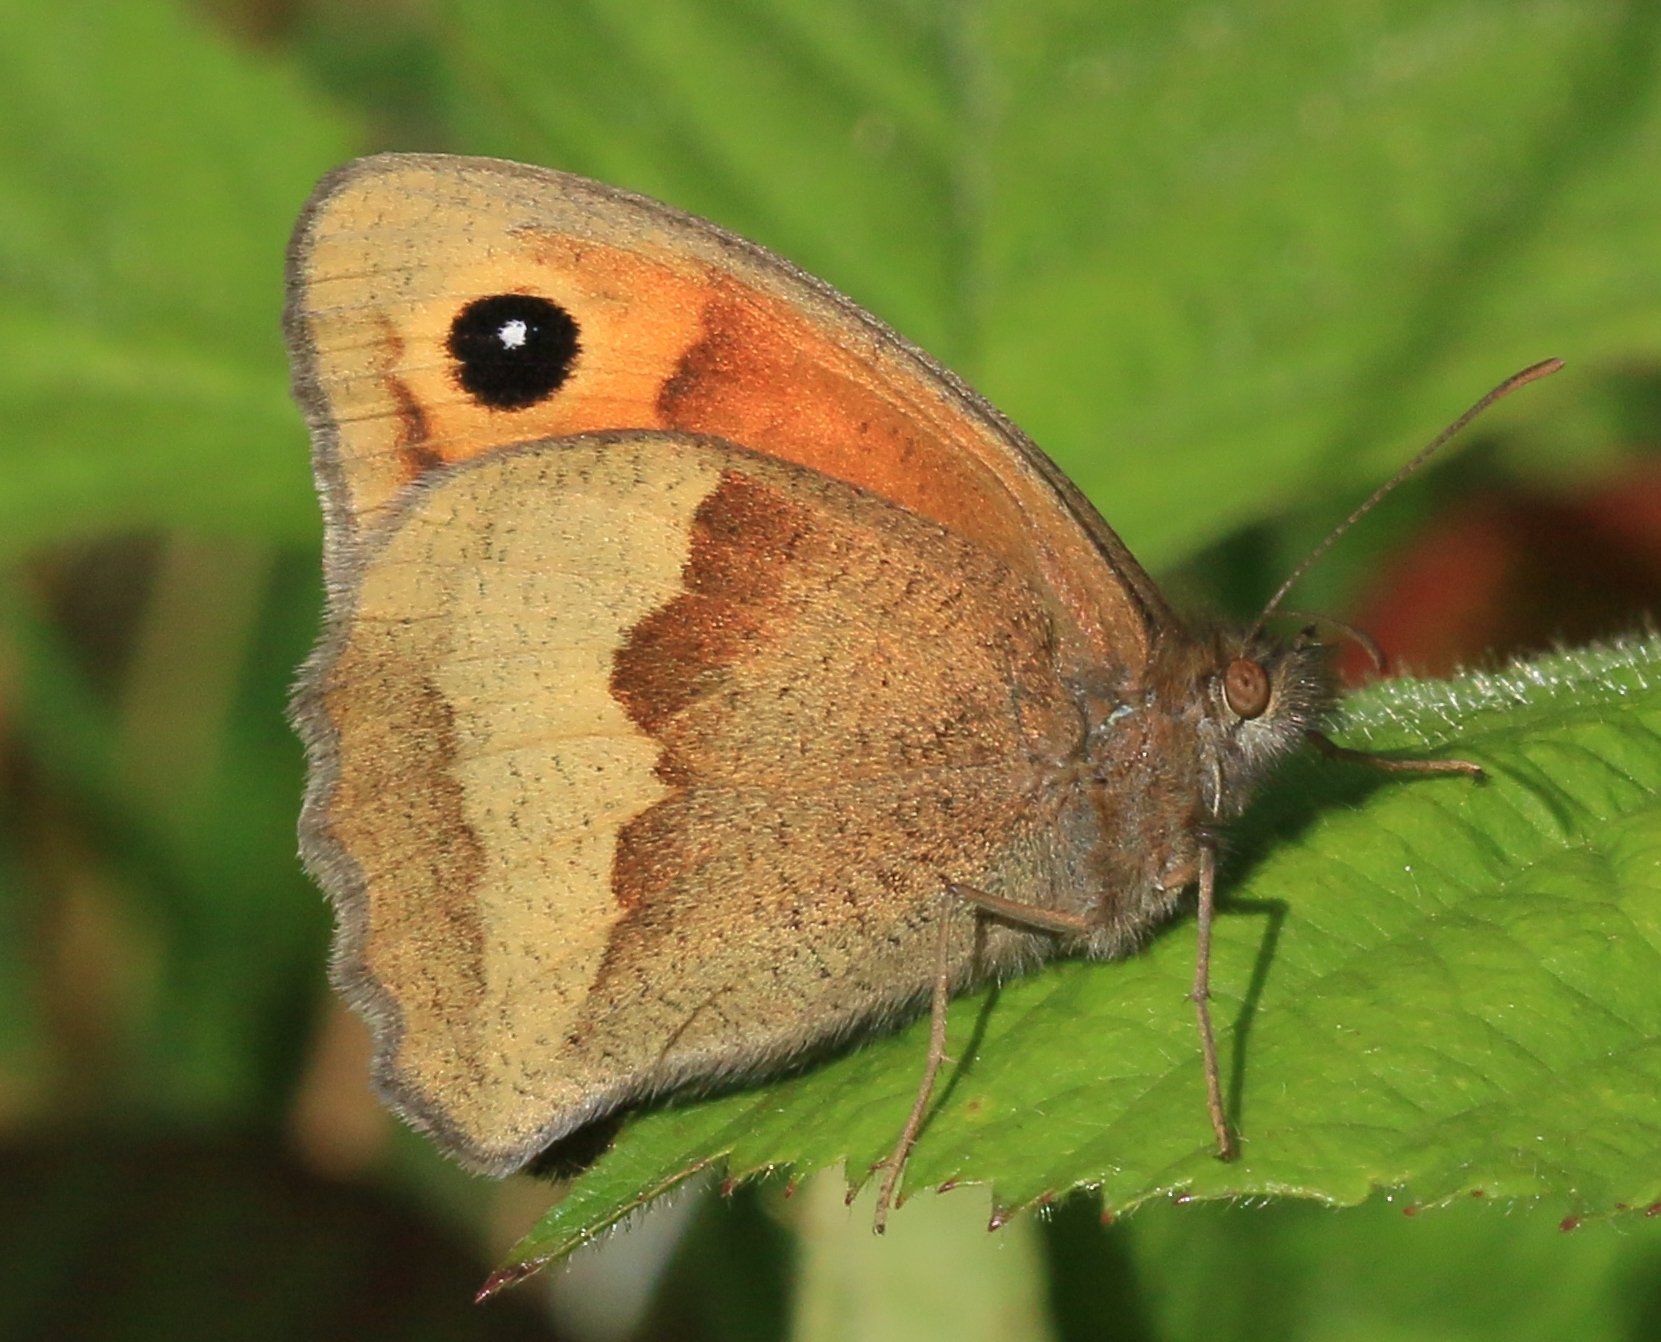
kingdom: Animalia
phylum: Arthropoda
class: Insecta
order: Lepidoptera
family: Nymphalidae
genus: Maniola
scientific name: Maniola jurtina
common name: Meadow brown
